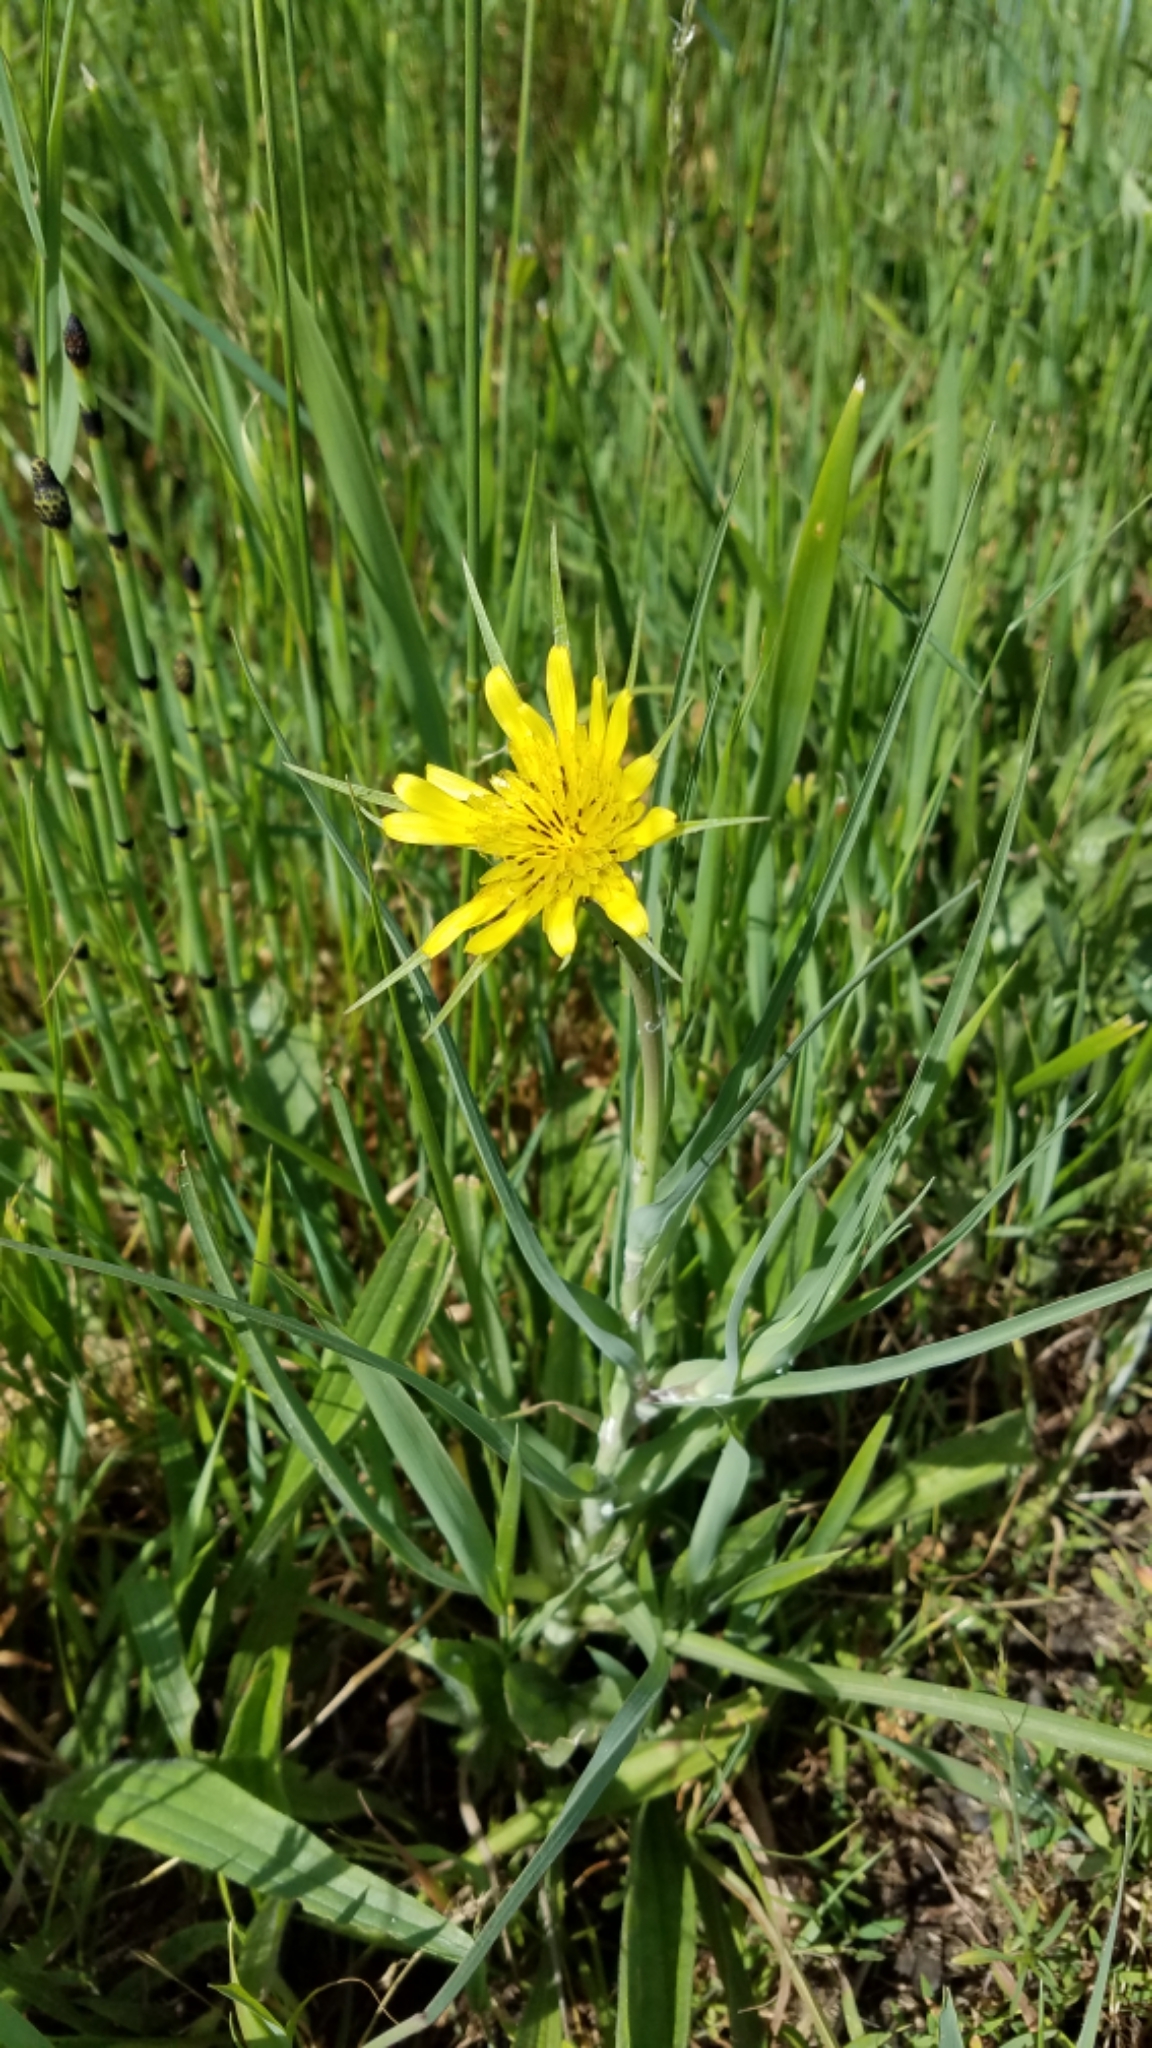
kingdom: Plantae
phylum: Tracheophyta
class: Magnoliopsida
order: Asterales
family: Asteraceae
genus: Tragopogon
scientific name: Tragopogon dubius
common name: Yellow salsify
